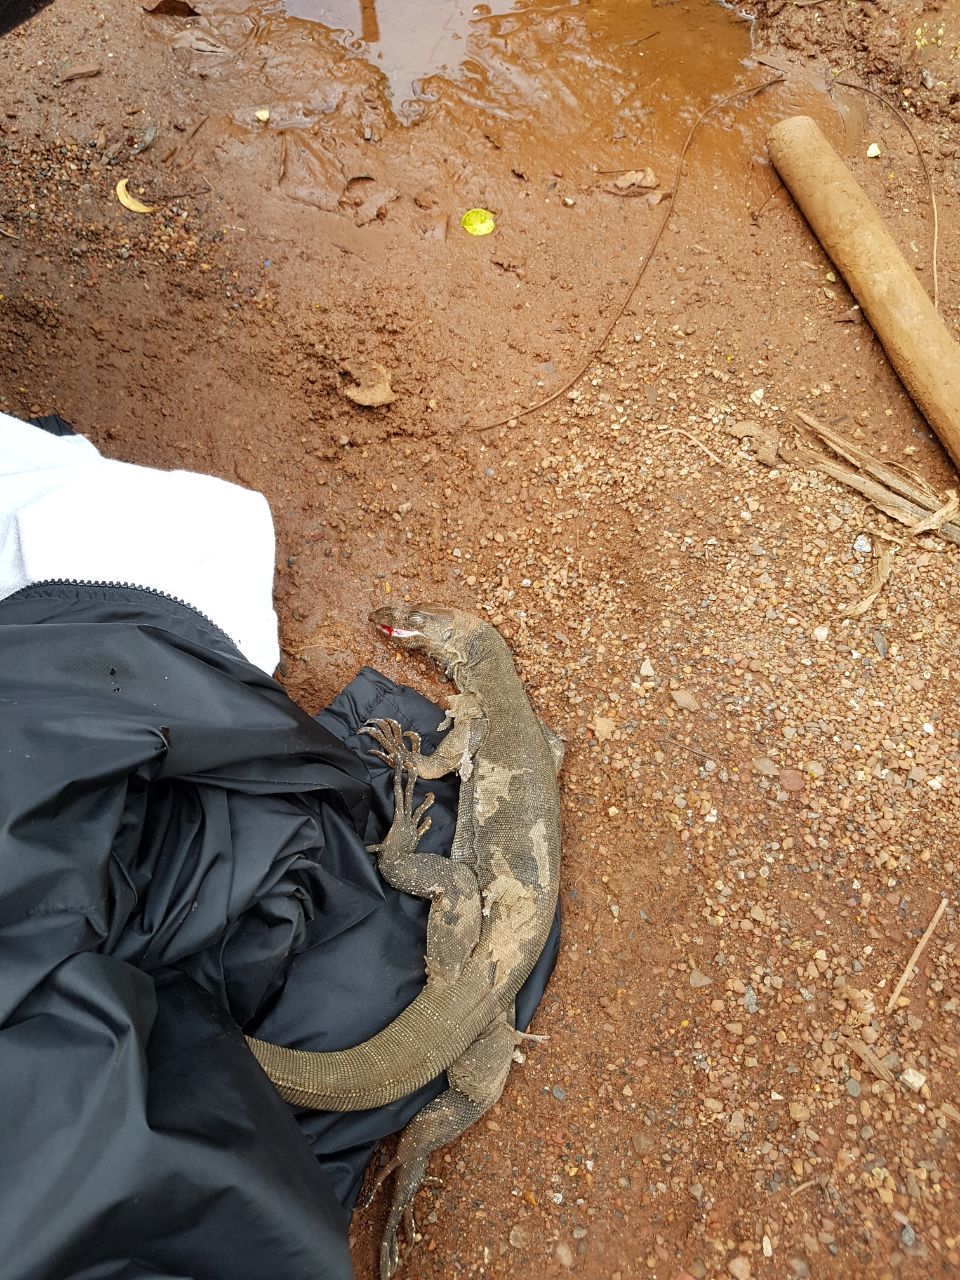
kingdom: Animalia
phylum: Chordata
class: Squamata
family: Varanidae
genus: Varanus
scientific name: Varanus bengalensis
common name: Bengal monitor
